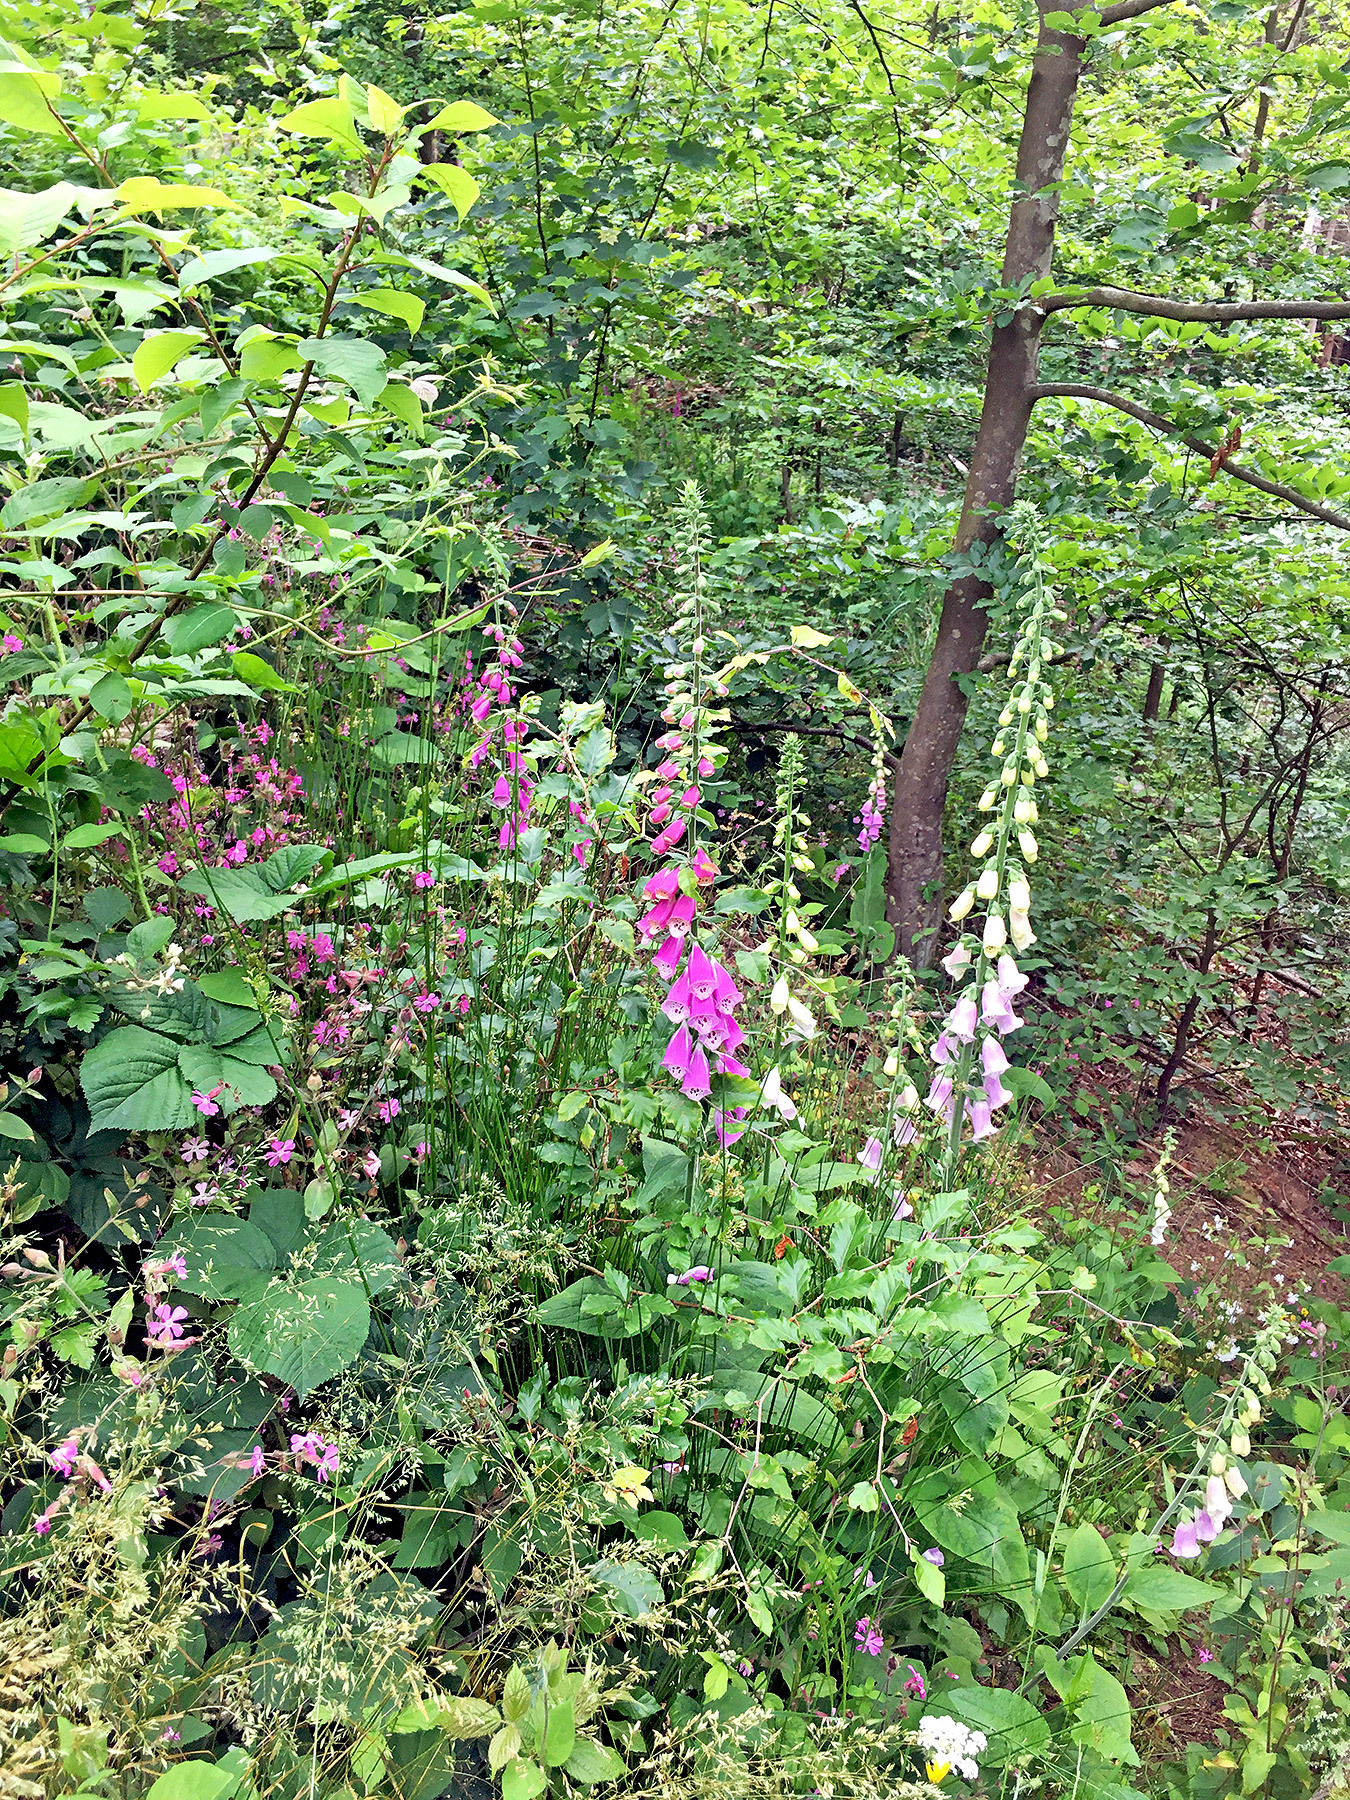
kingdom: Plantae
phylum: Tracheophyta
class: Magnoliopsida
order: Lamiales
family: Plantaginaceae
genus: Digitalis
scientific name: Digitalis purpurea
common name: Foxglove
